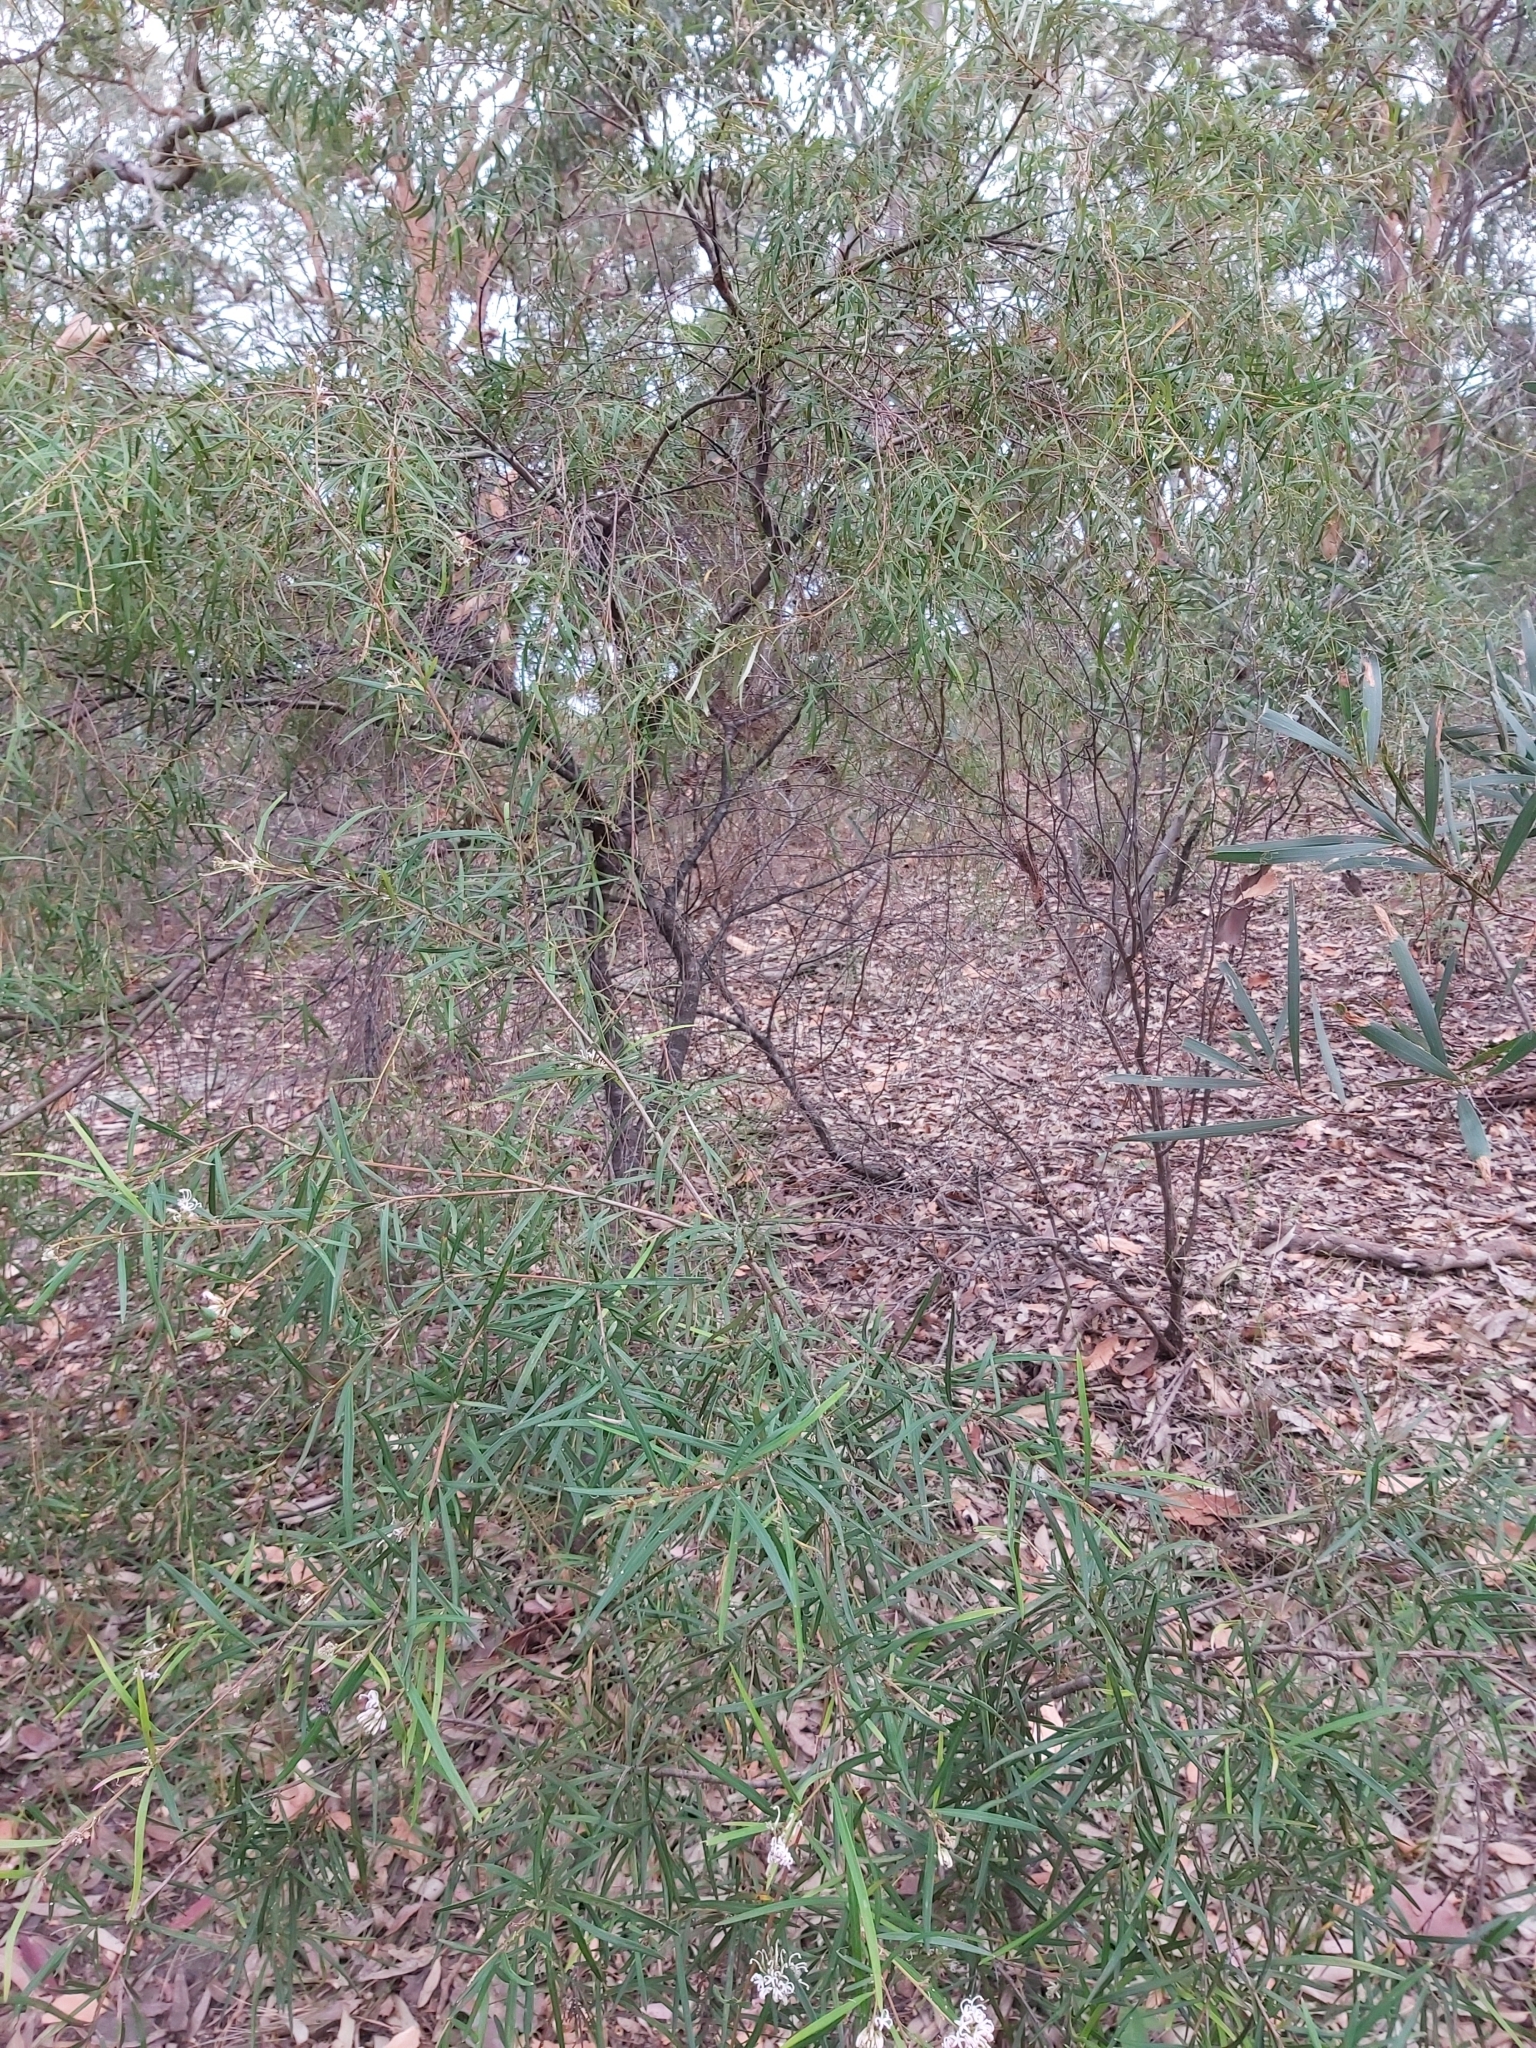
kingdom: Plantae
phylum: Tracheophyta
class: Magnoliopsida
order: Proteales
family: Proteaceae
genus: Grevillea
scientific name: Grevillea linearifolia
